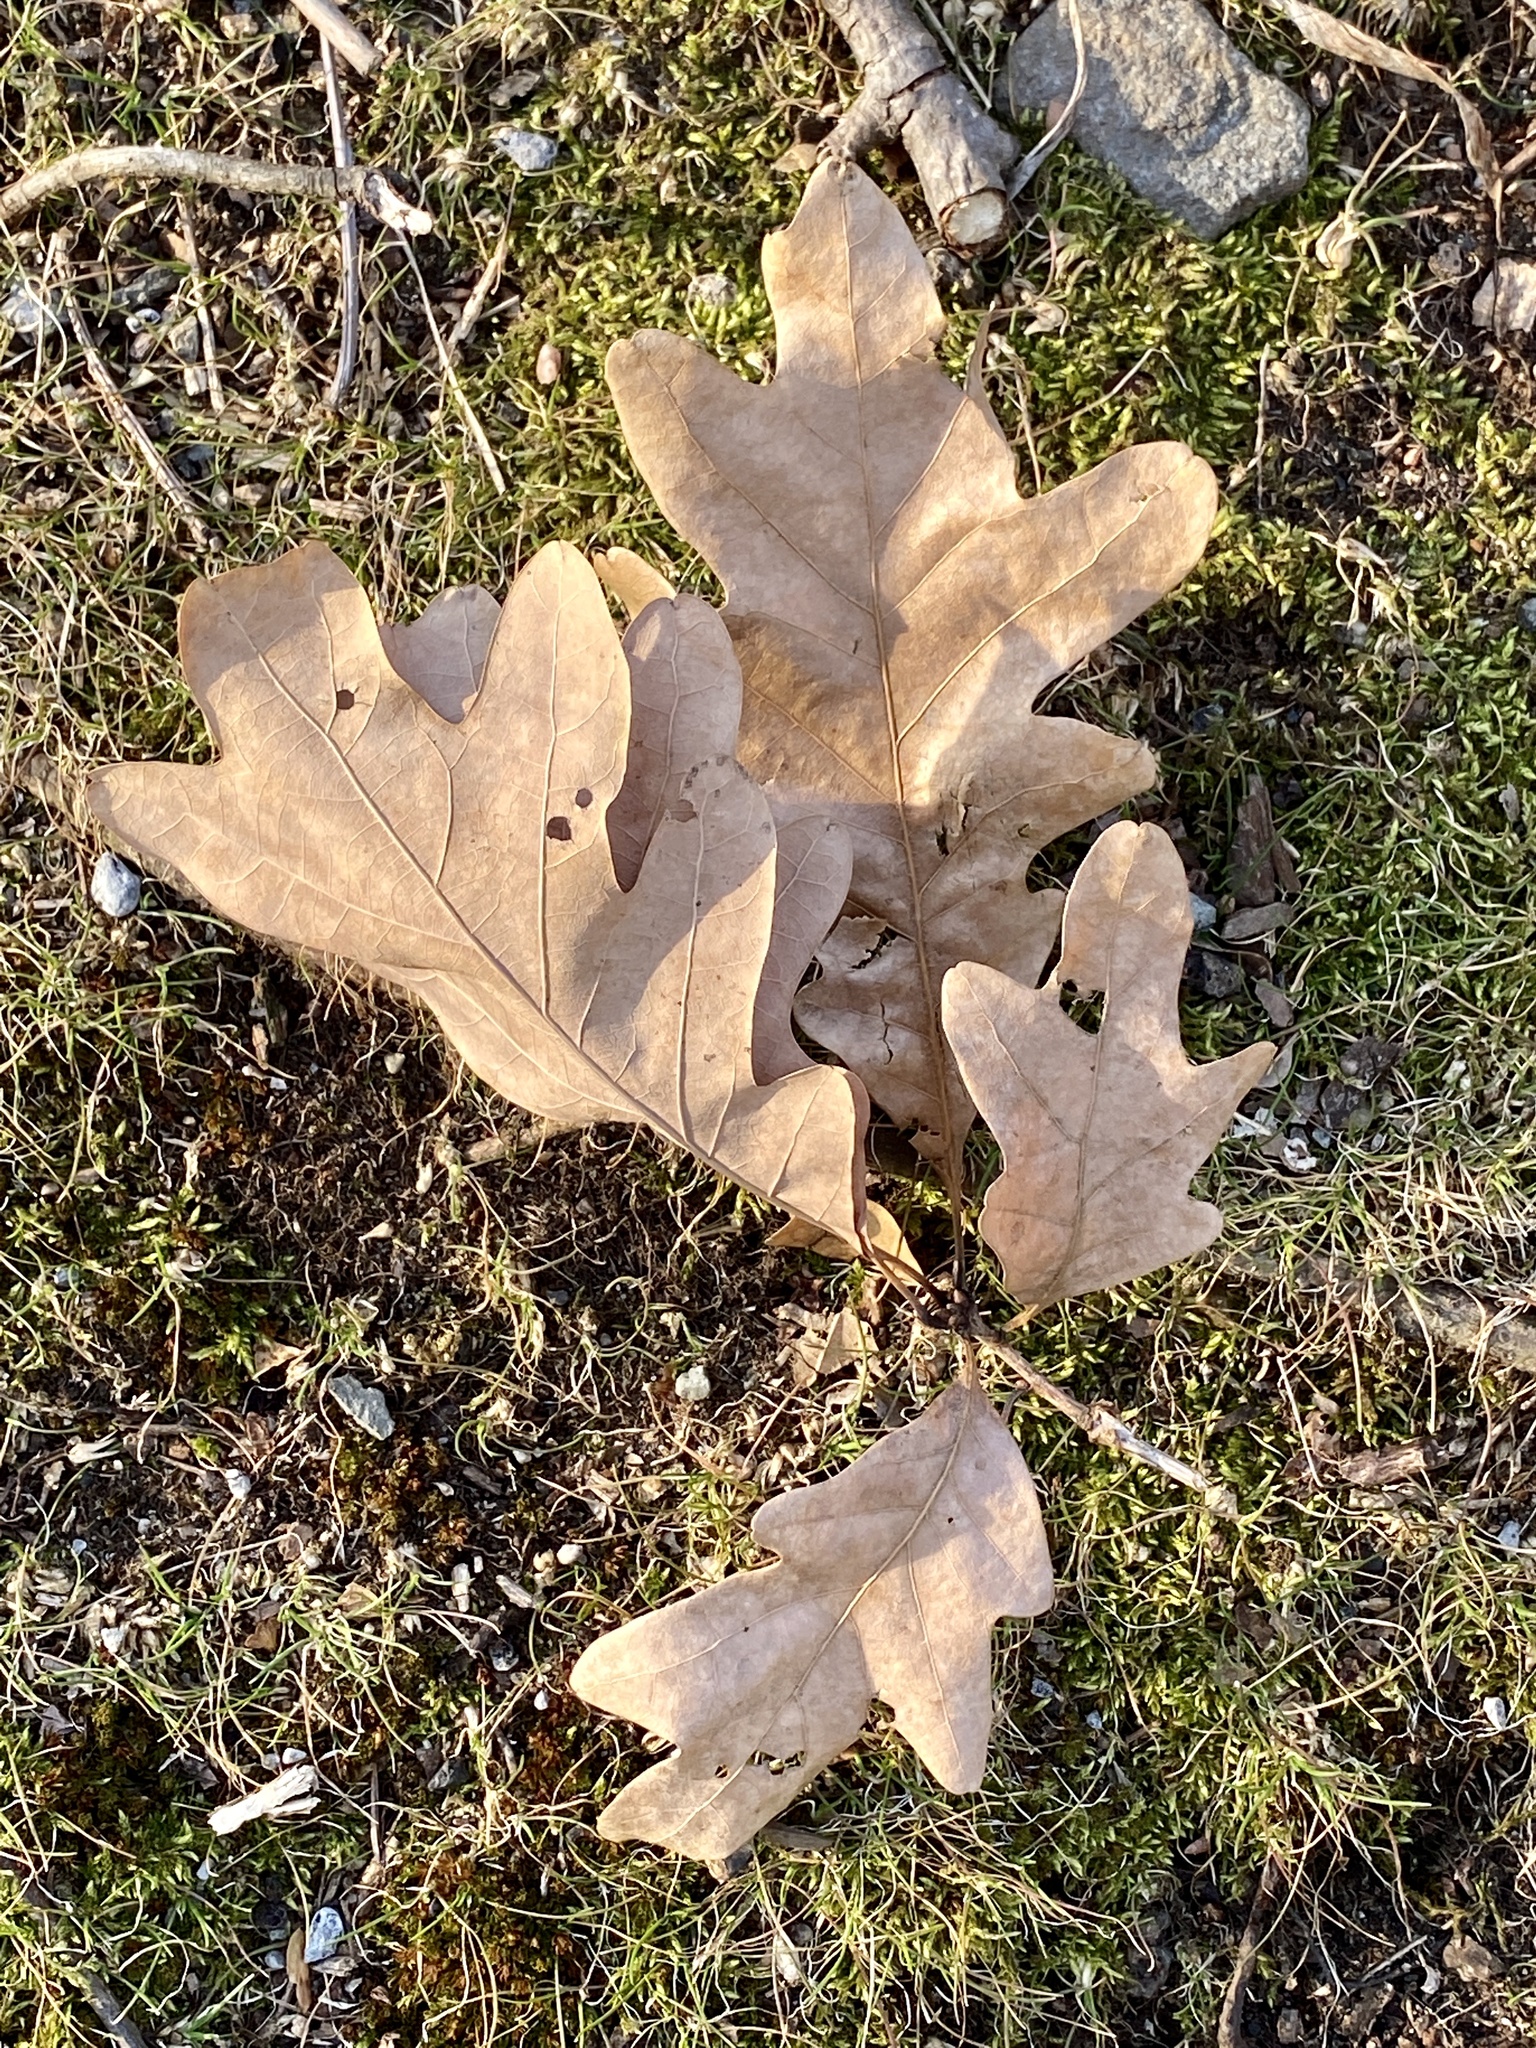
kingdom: Plantae
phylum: Tracheophyta
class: Magnoliopsida
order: Fagales
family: Fagaceae
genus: Quercus
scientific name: Quercus alba
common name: White oak
